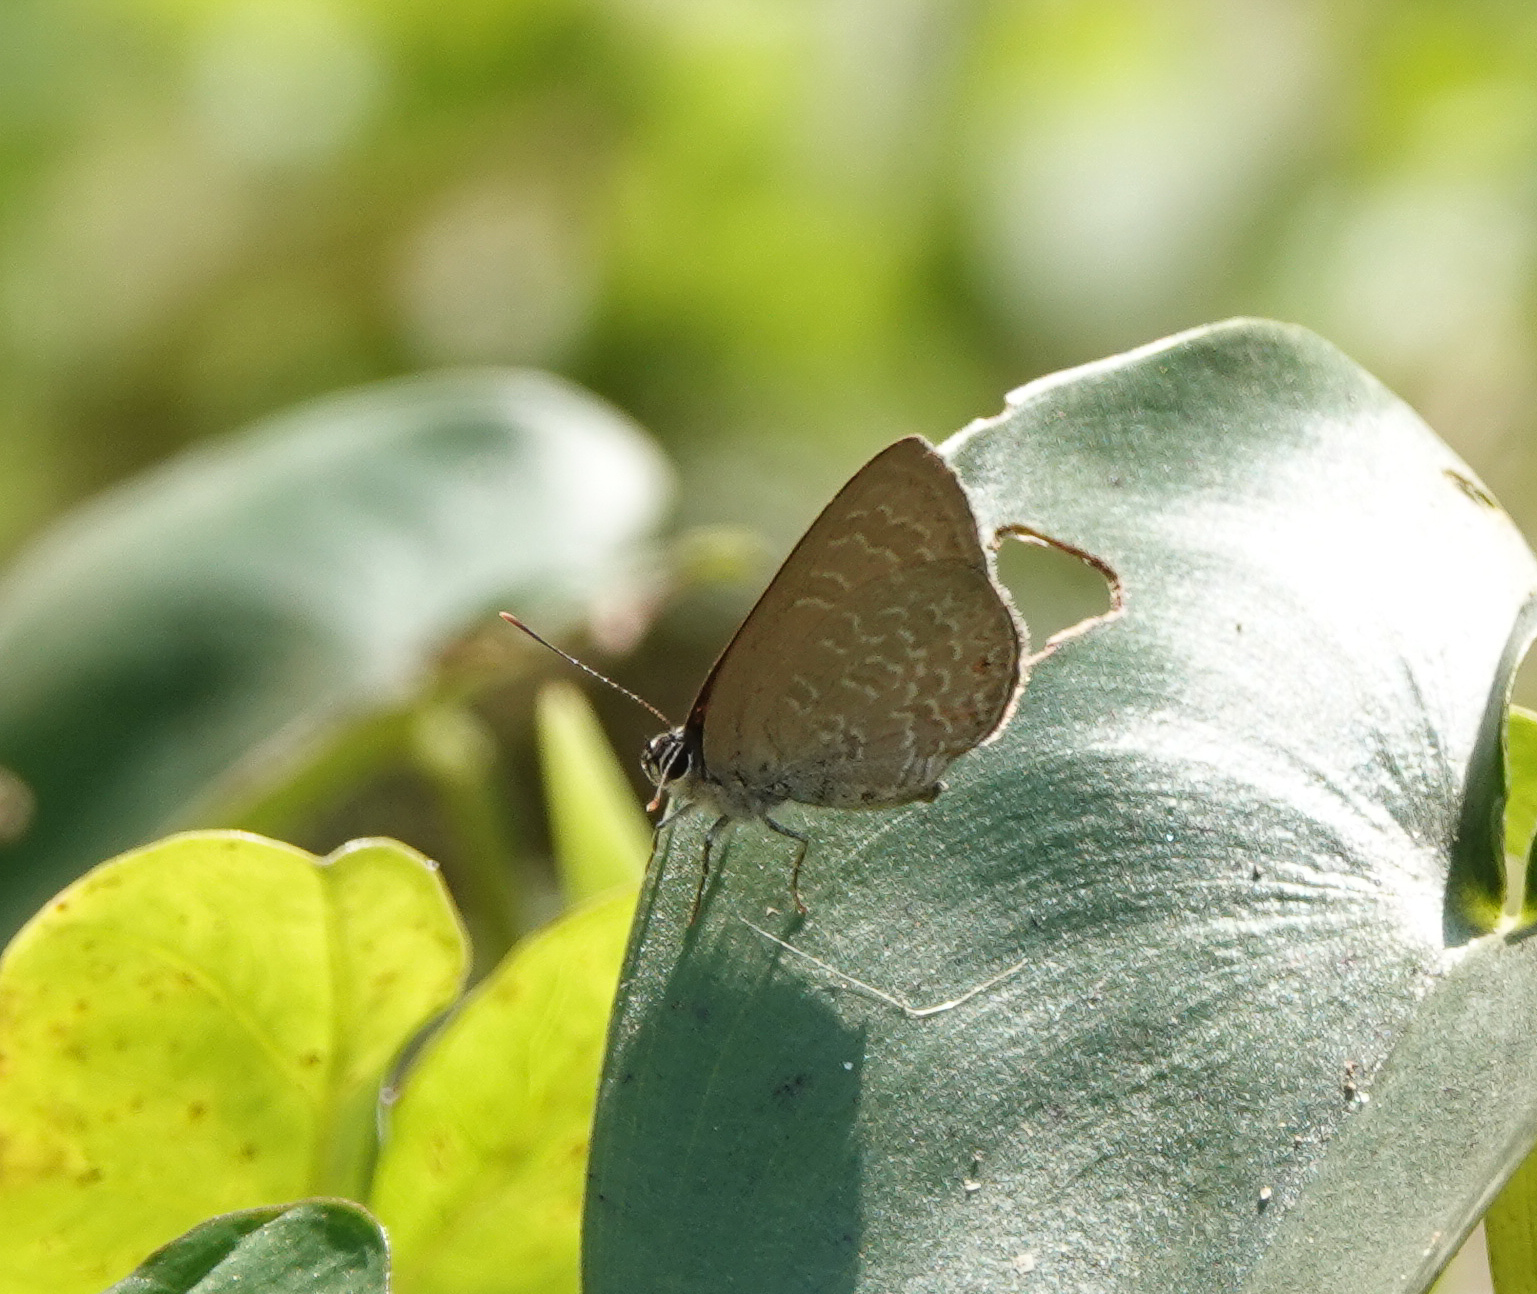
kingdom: Animalia
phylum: Arthropoda
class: Insecta
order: Lepidoptera
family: Lycaenidae
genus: Anthene
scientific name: Anthene emolus
